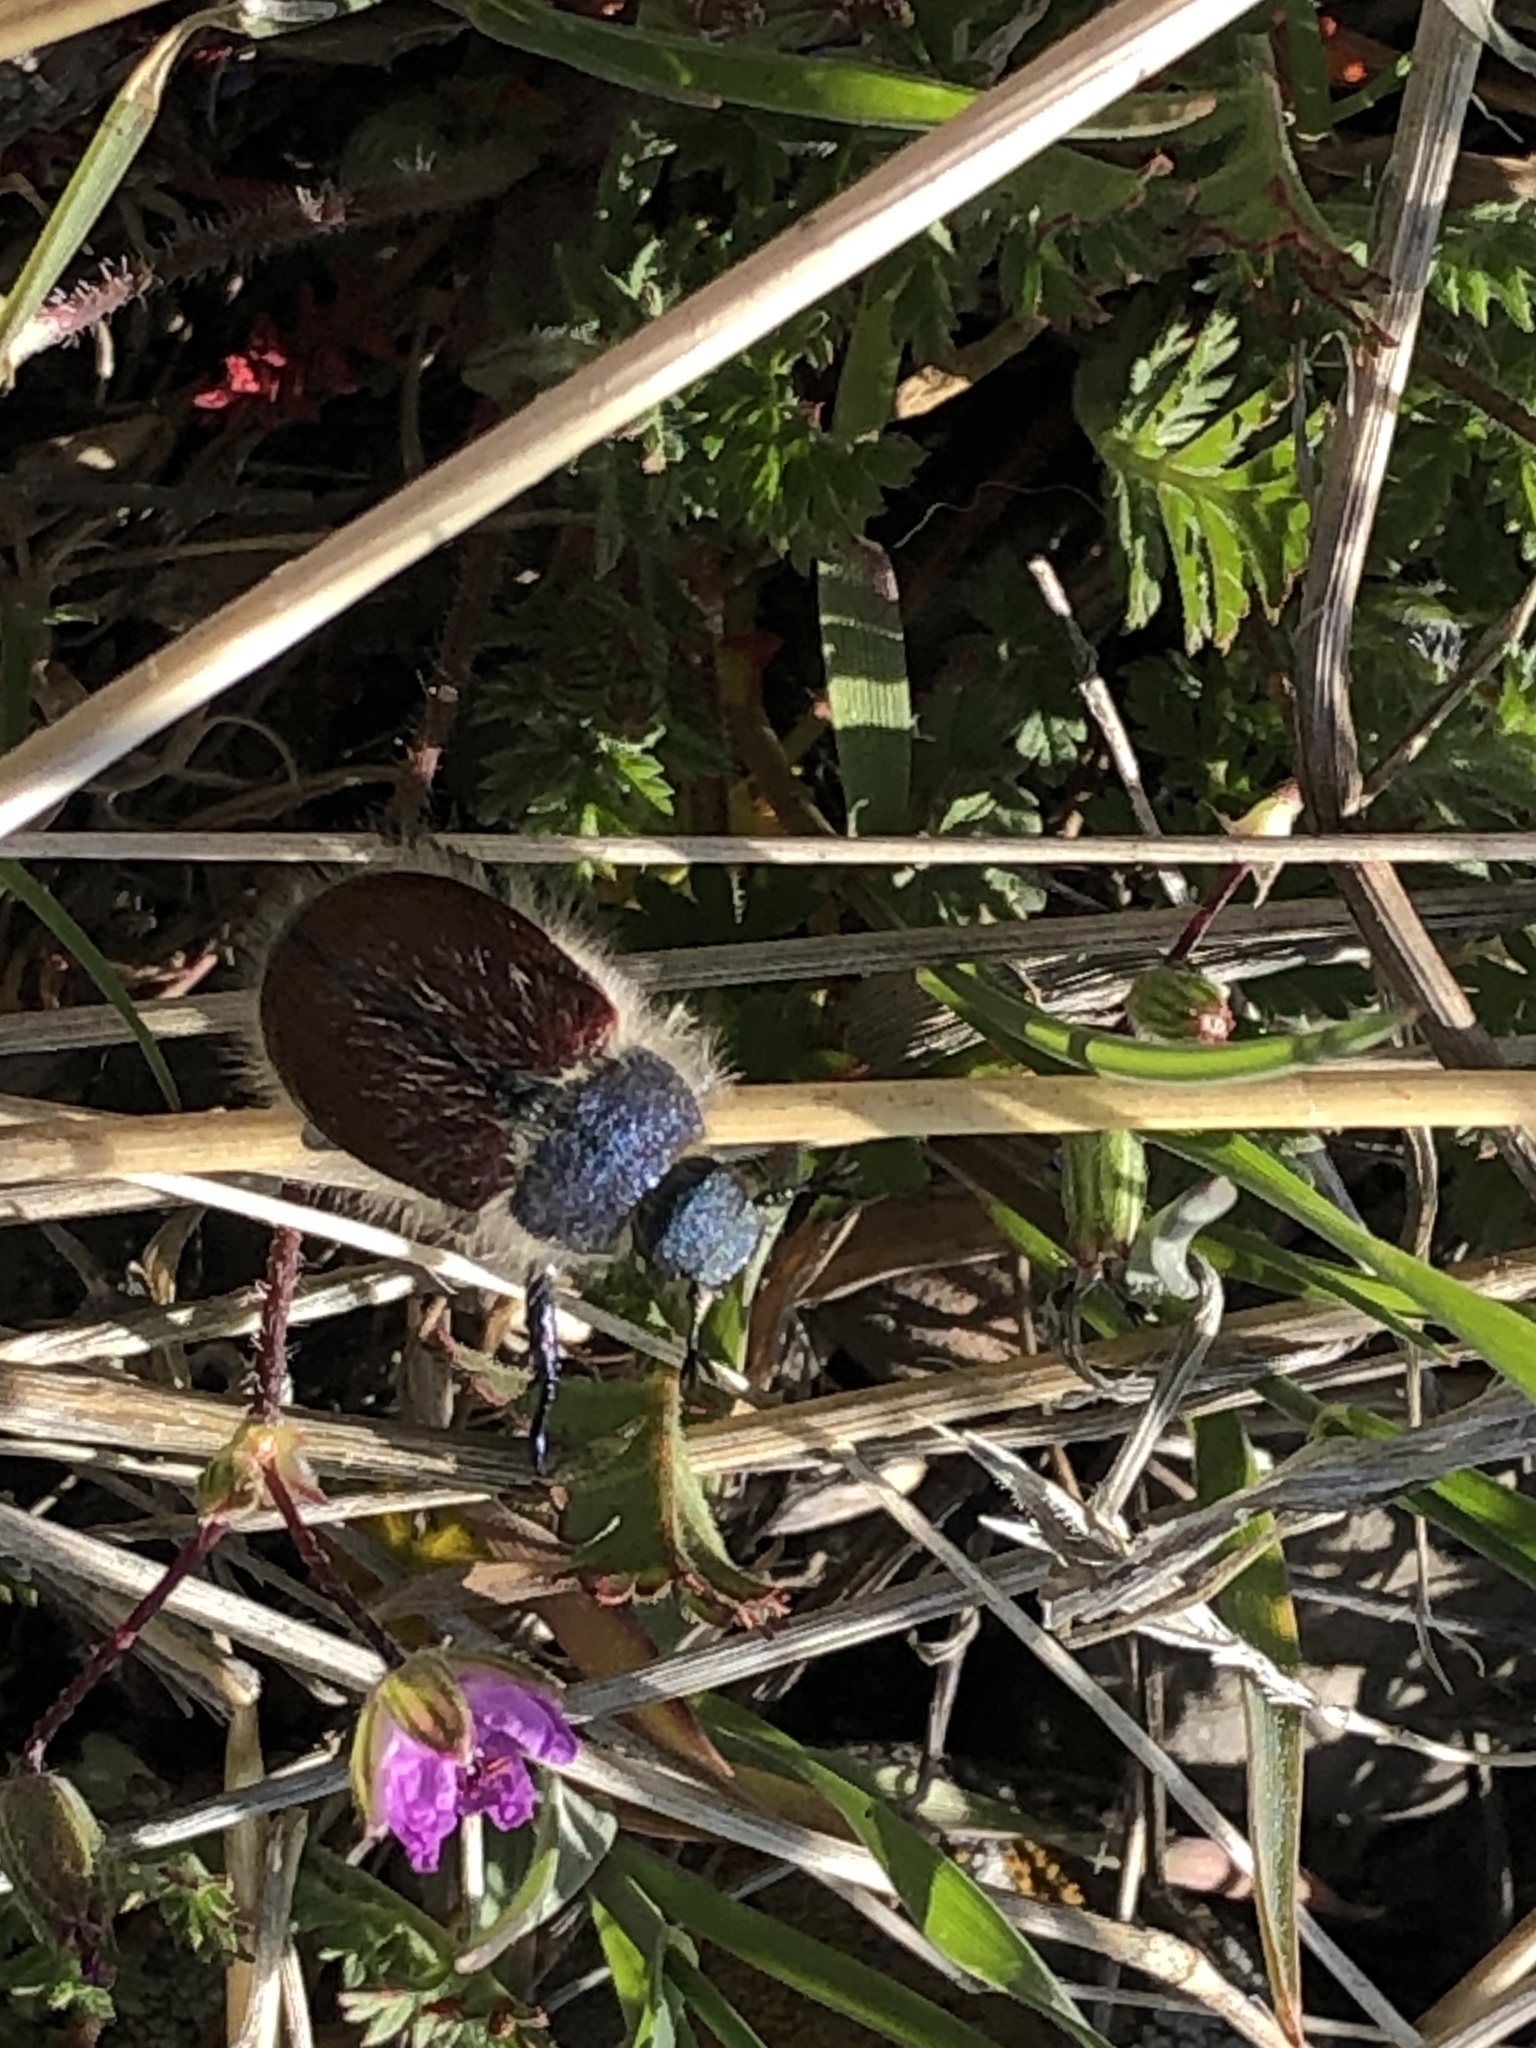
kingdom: Animalia
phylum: Arthropoda
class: Insecta
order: Coleoptera
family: Scarabaeidae
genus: Paracotalpa
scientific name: Paracotalpa granicollis
